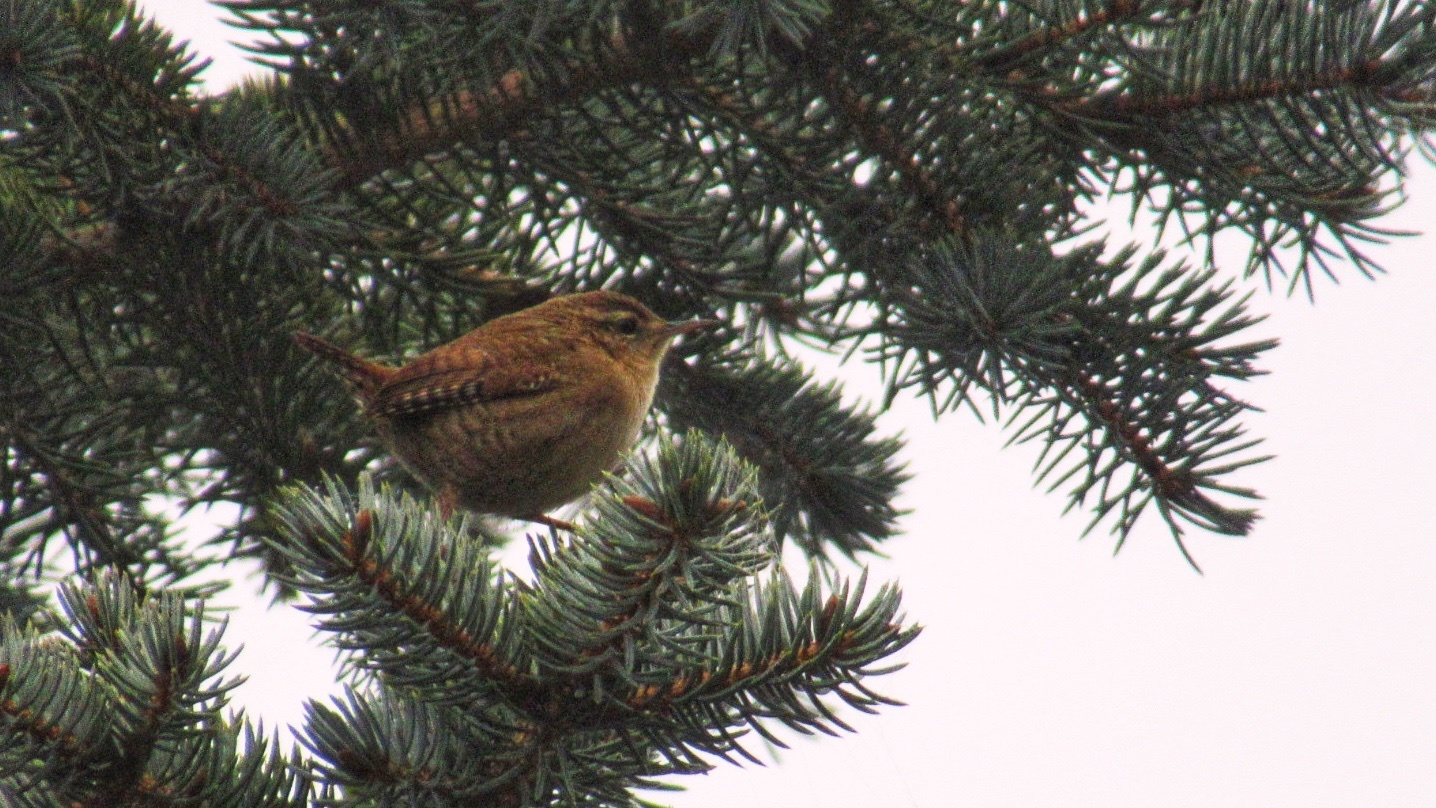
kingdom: Animalia
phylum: Chordata
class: Aves
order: Passeriformes
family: Troglodytidae
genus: Troglodytes
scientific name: Troglodytes troglodytes
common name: Eurasian wren
